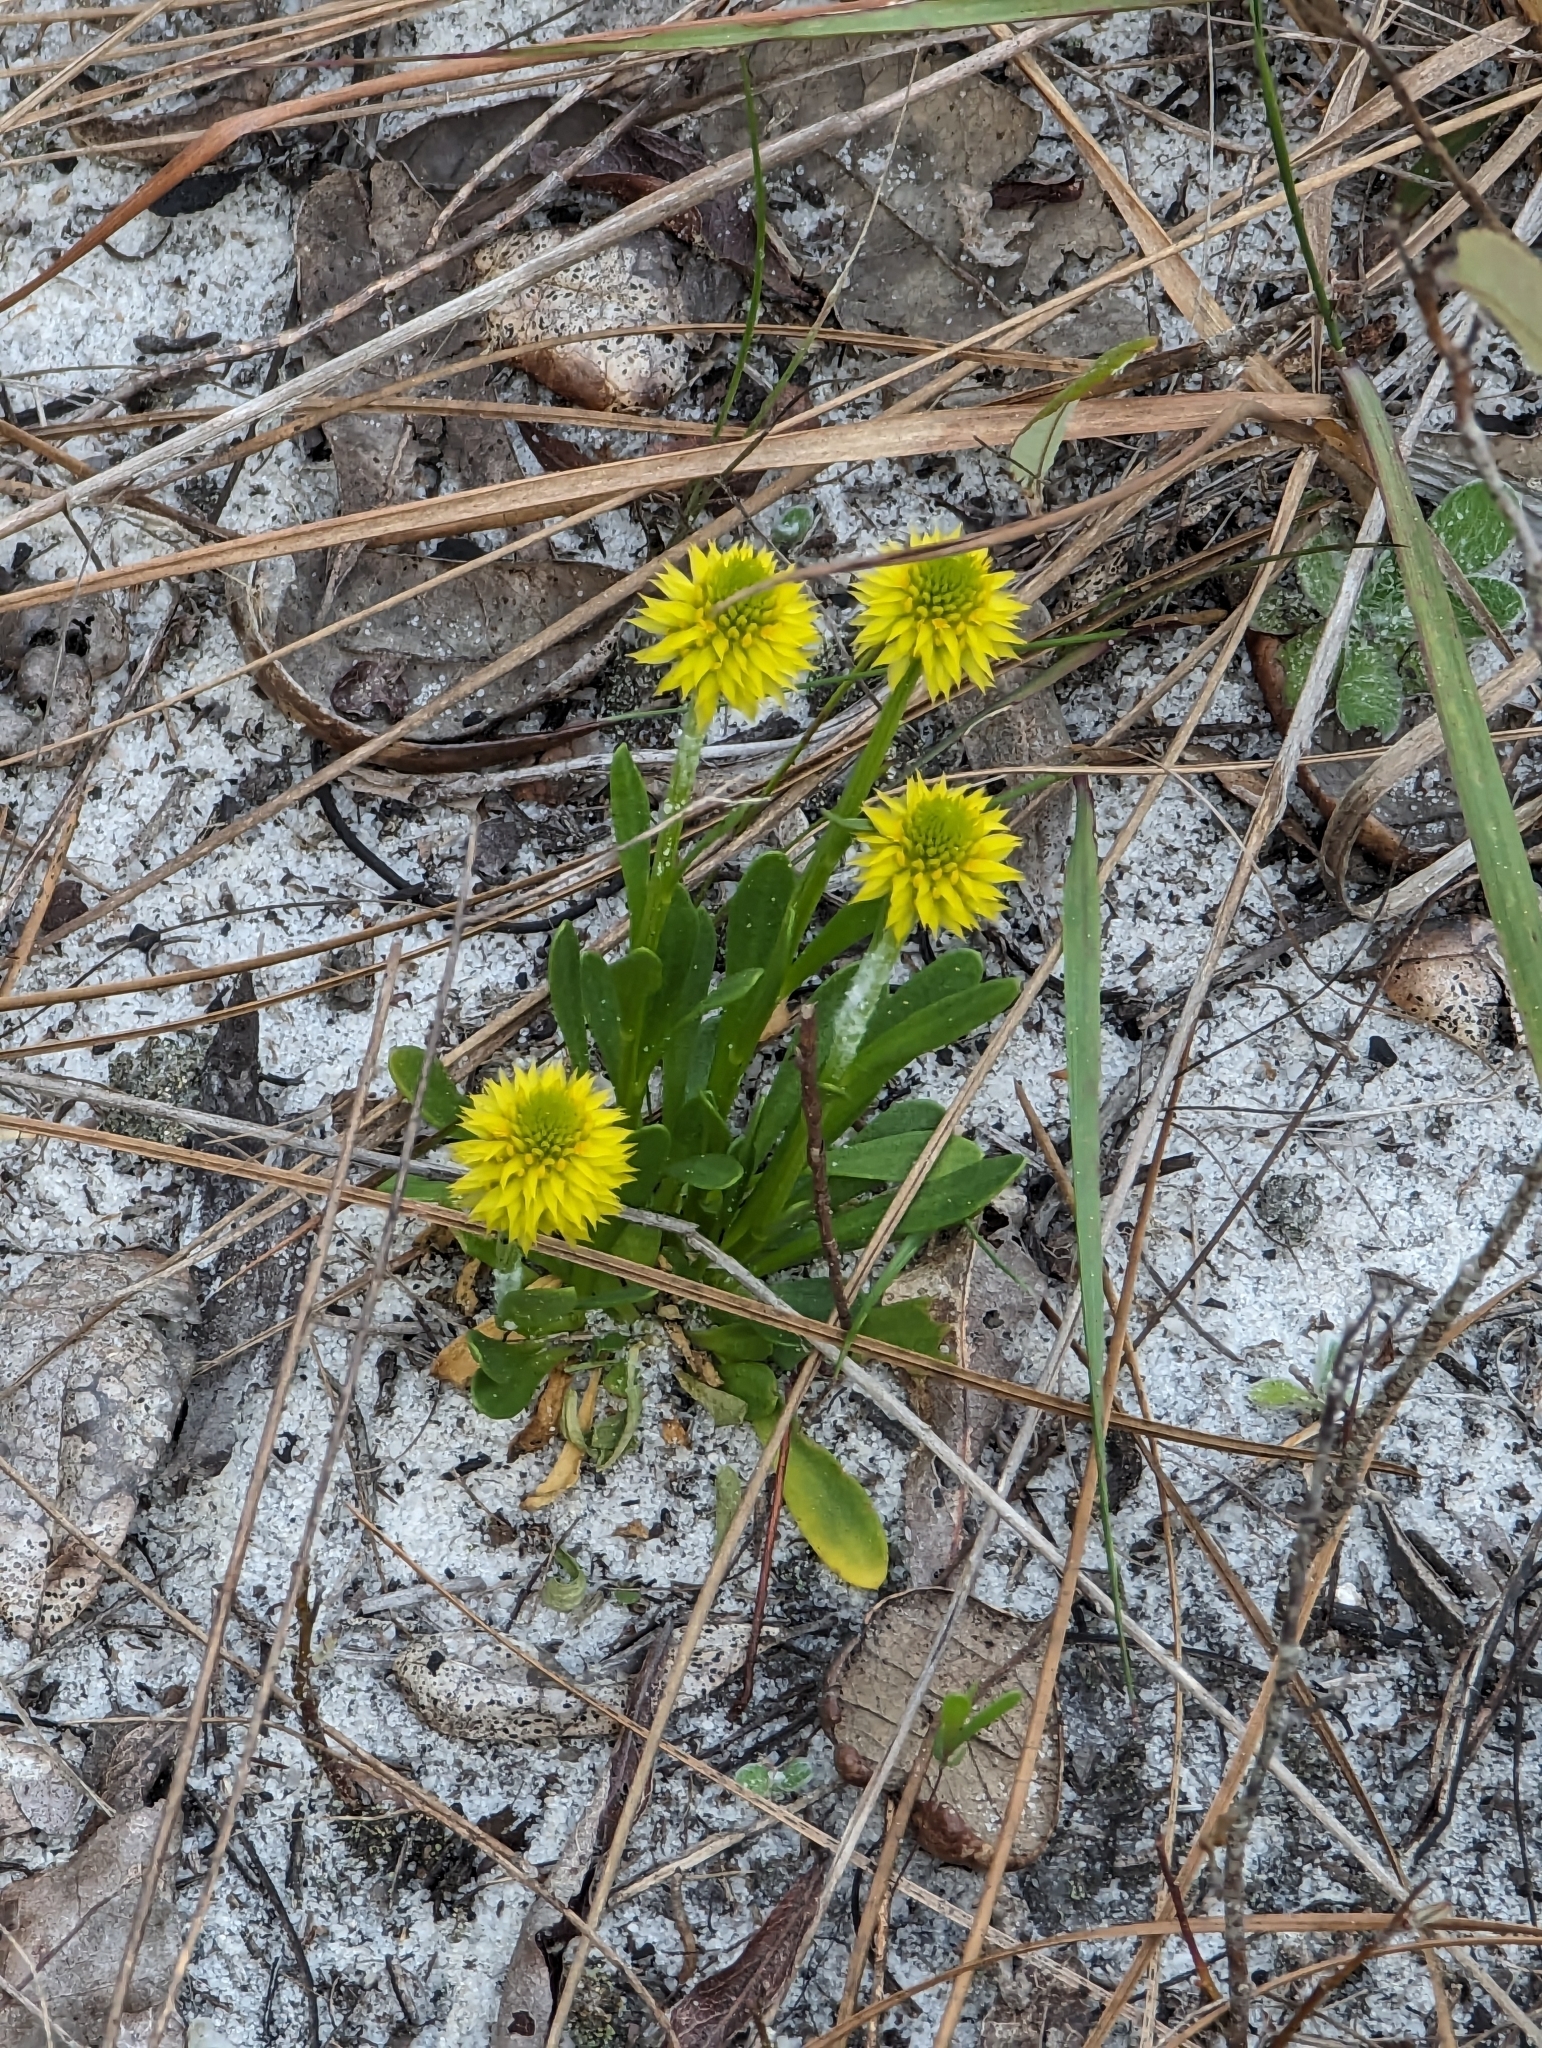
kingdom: Plantae
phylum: Tracheophyta
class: Magnoliopsida
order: Fabales
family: Polygalaceae
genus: Polygala
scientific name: Polygala nana
